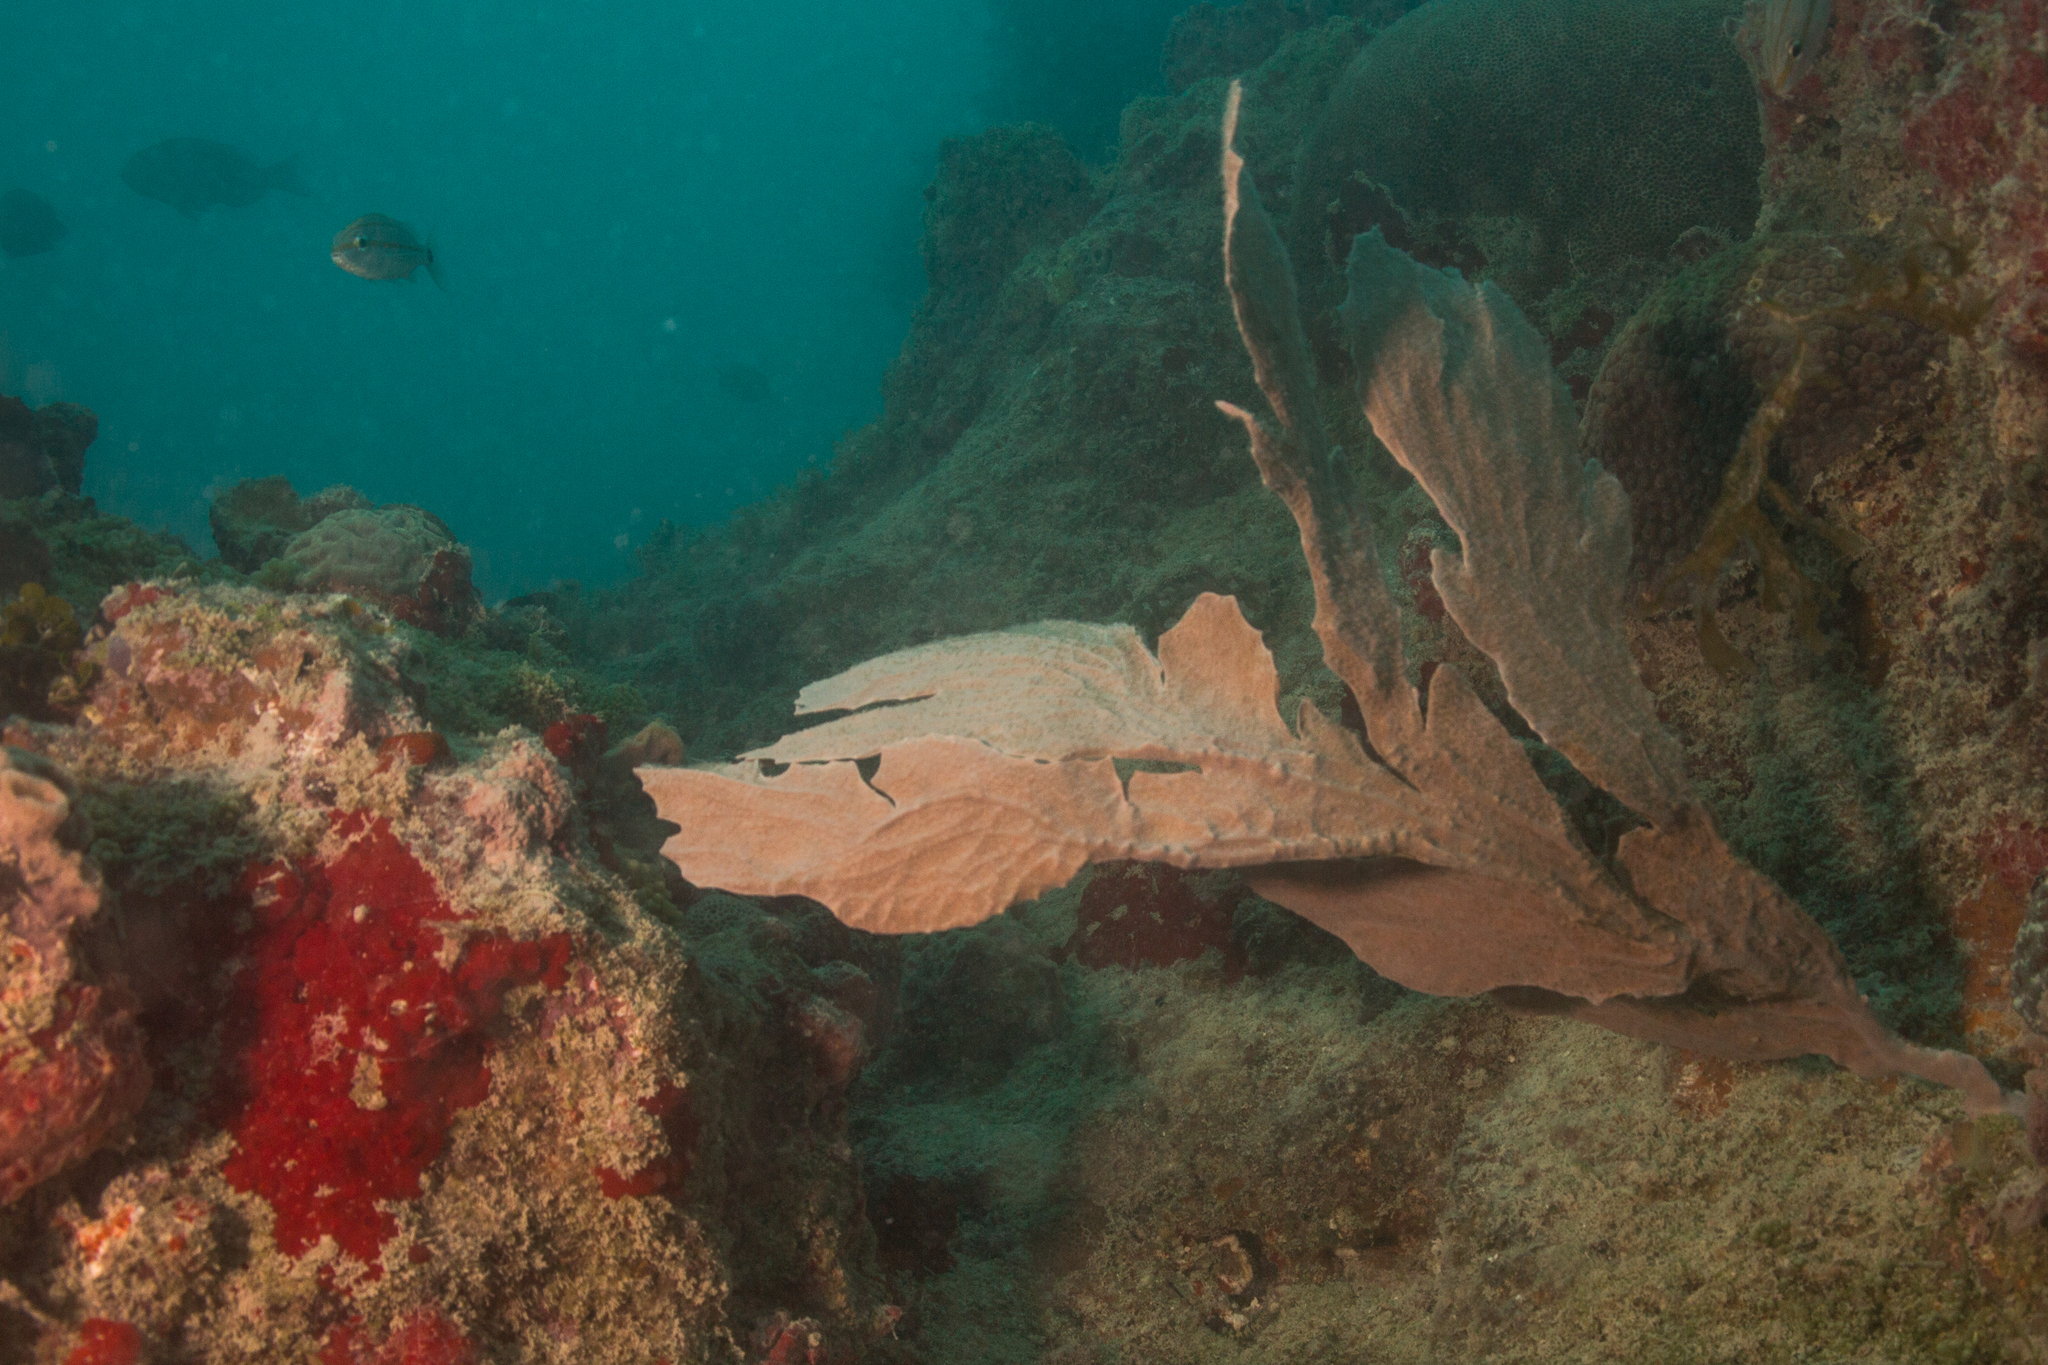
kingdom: Animalia
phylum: Cnidaria
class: Anthozoa
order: Malacalcyonacea
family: Gorgoniidae
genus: Phyllogorgia
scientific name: Phyllogorgia dilatata
